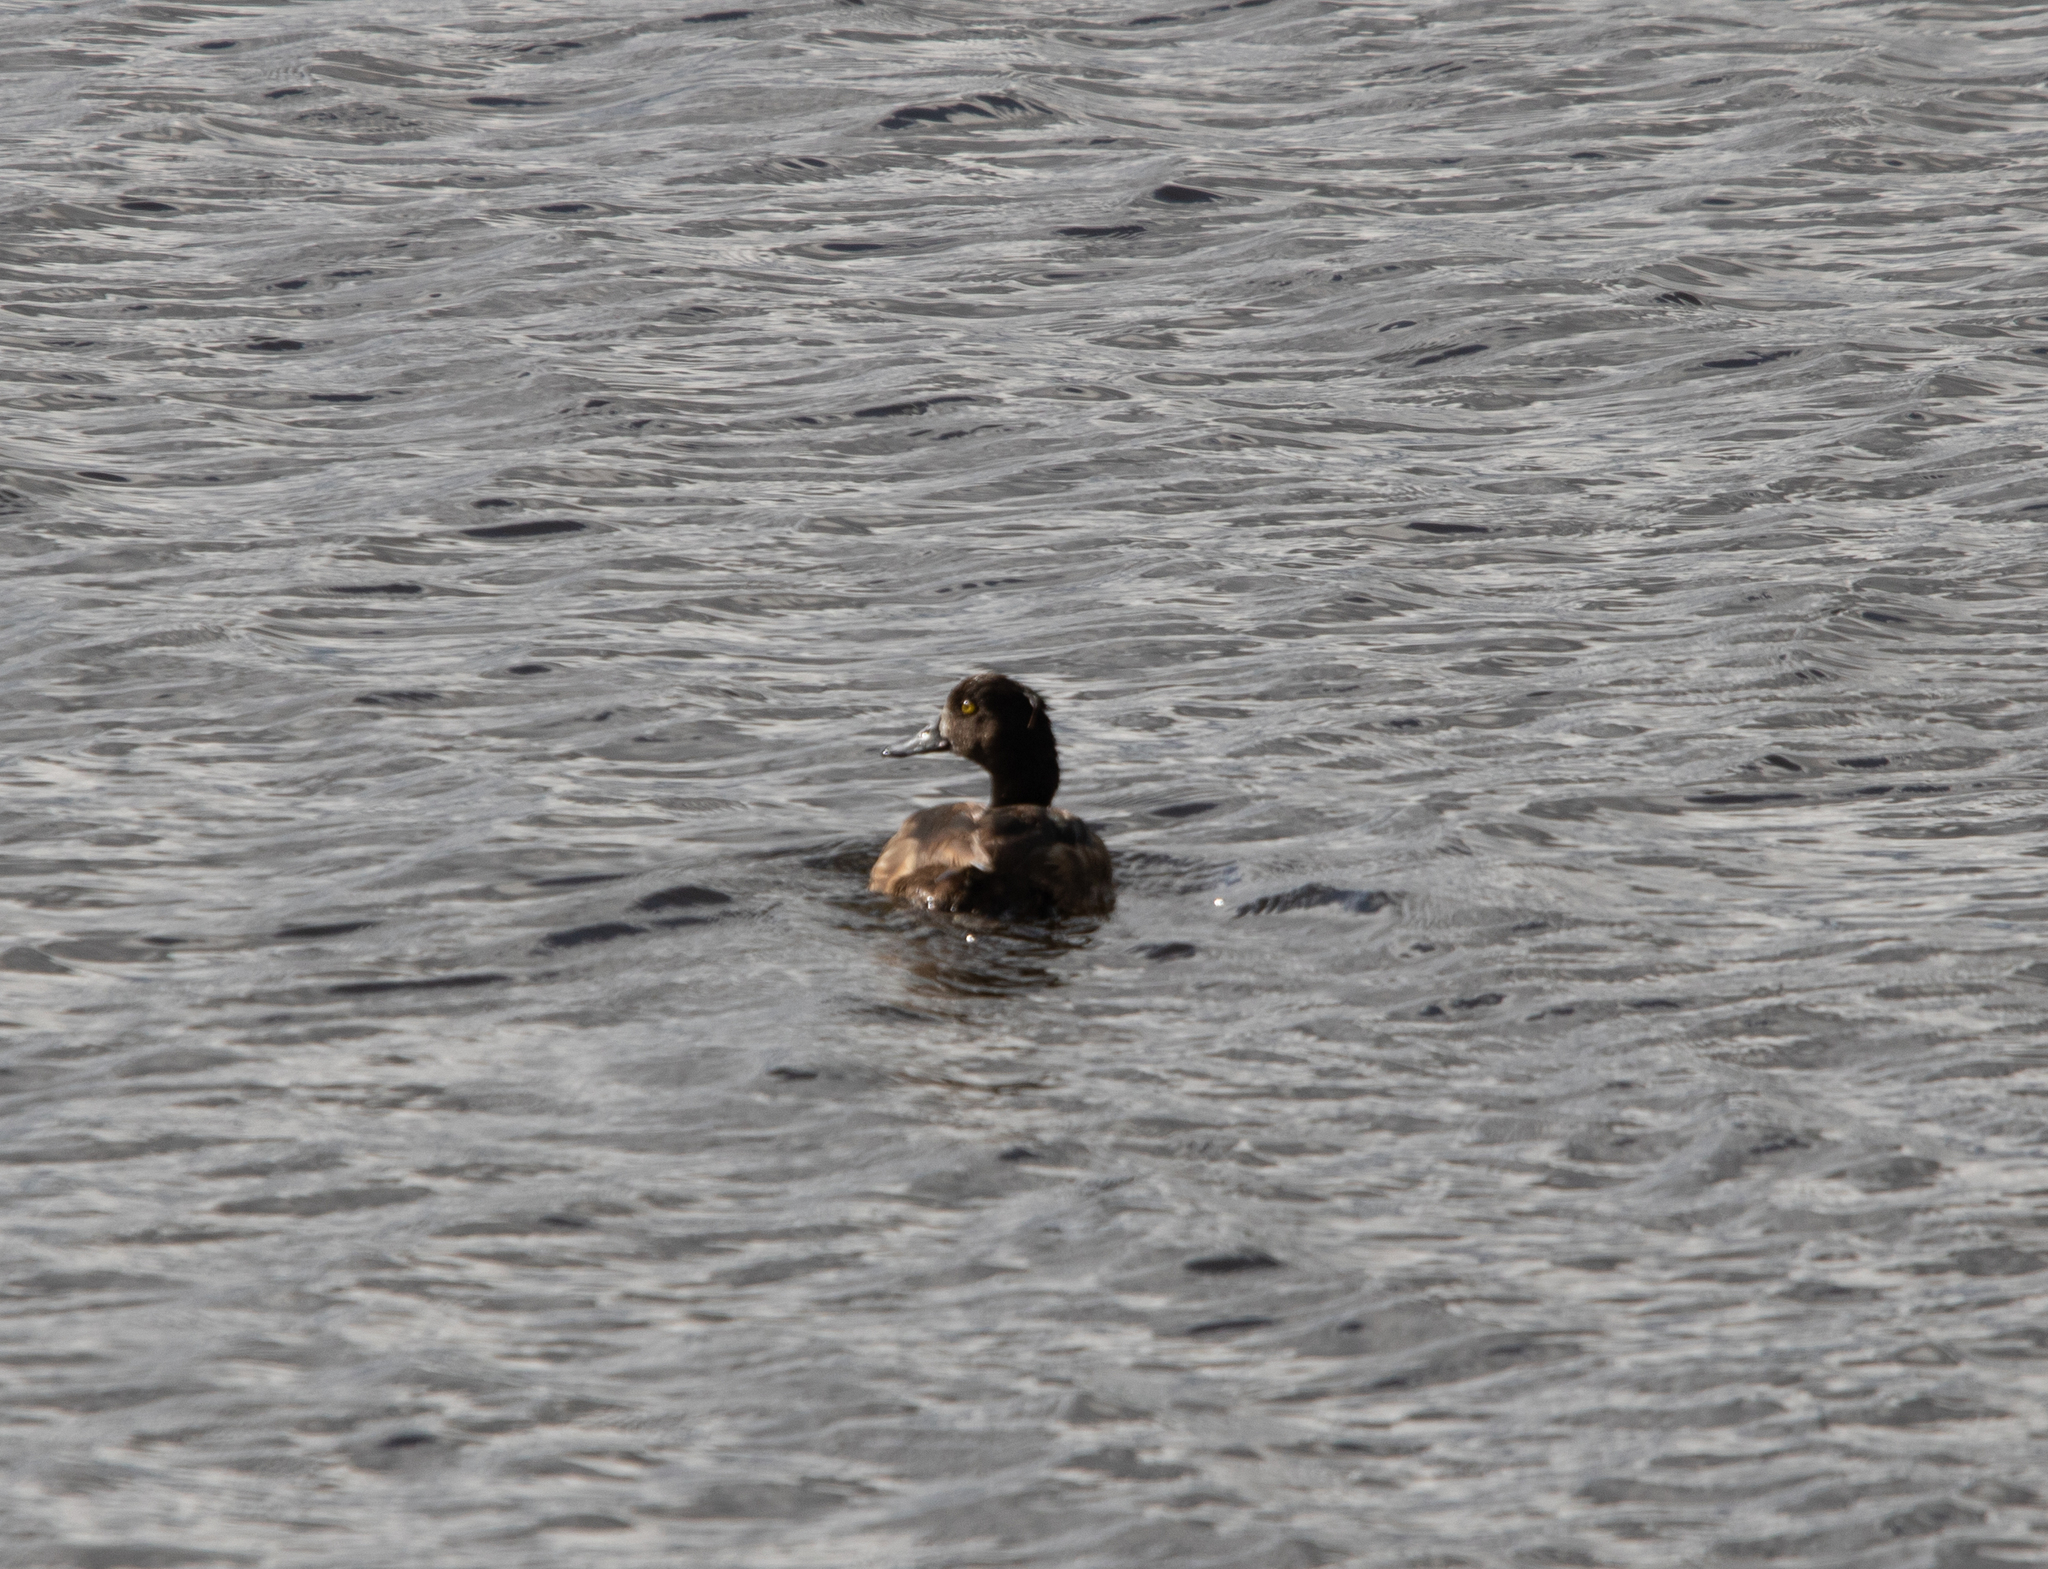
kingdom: Animalia
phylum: Chordata
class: Aves
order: Anseriformes
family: Anatidae
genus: Aythya
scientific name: Aythya fuligula
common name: Tufted duck
